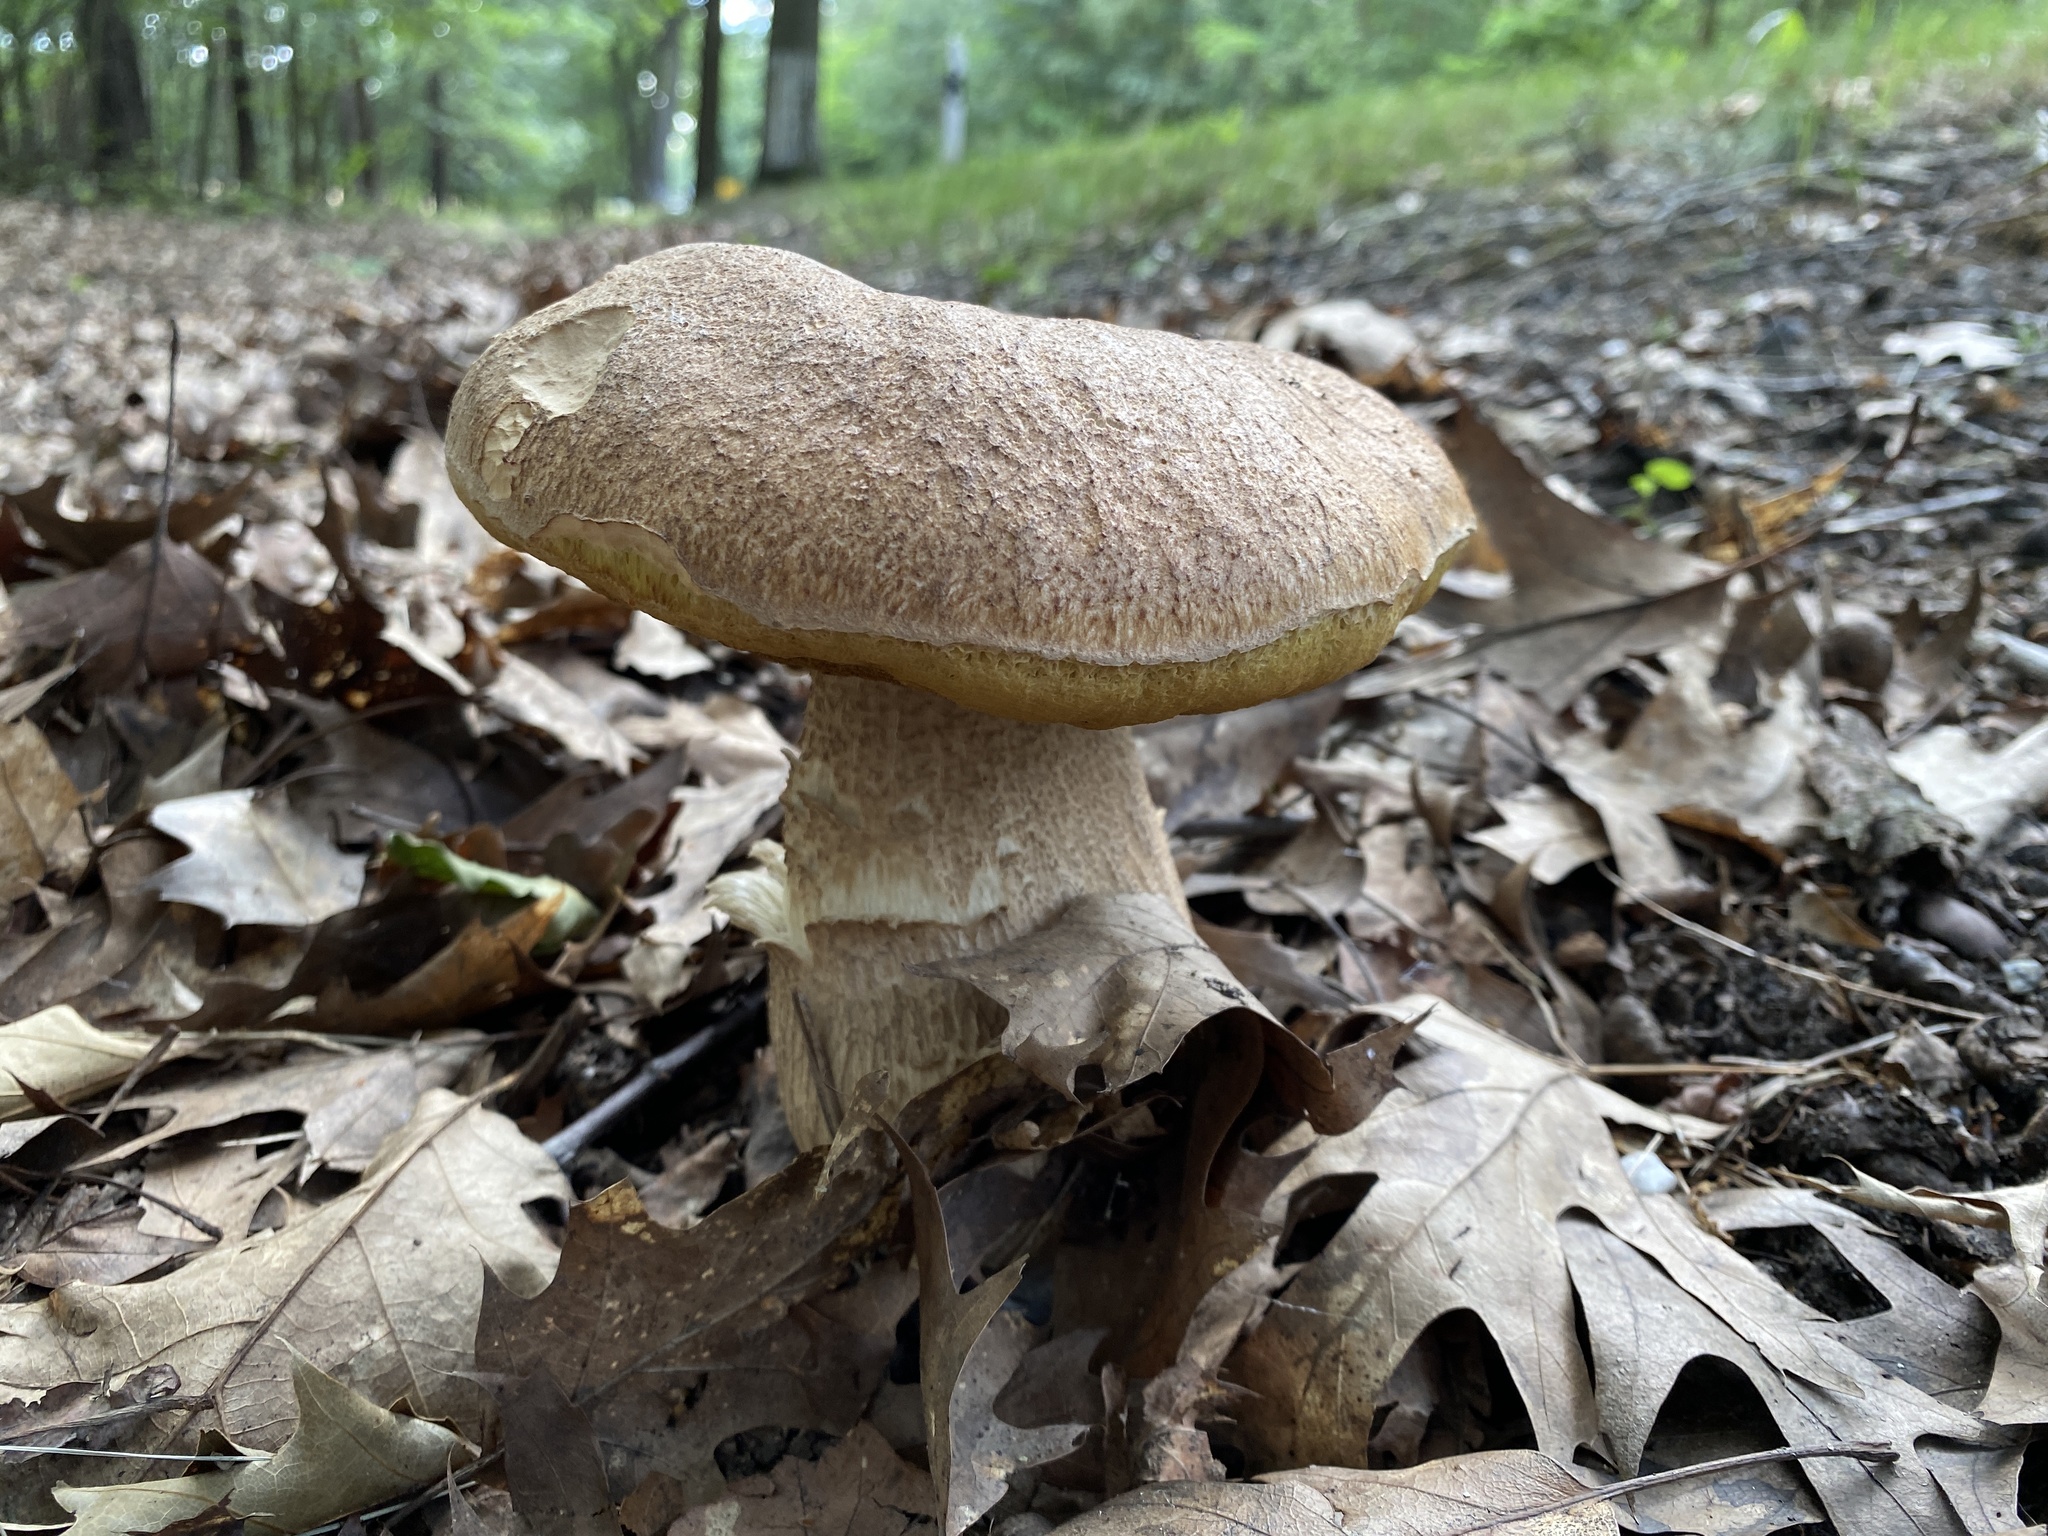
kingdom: Fungi
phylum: Basidiomycota
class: Agaricomycetes
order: Boletales
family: Boletaceae
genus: Boletus
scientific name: Boletus reticulatus
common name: Summer bolete
